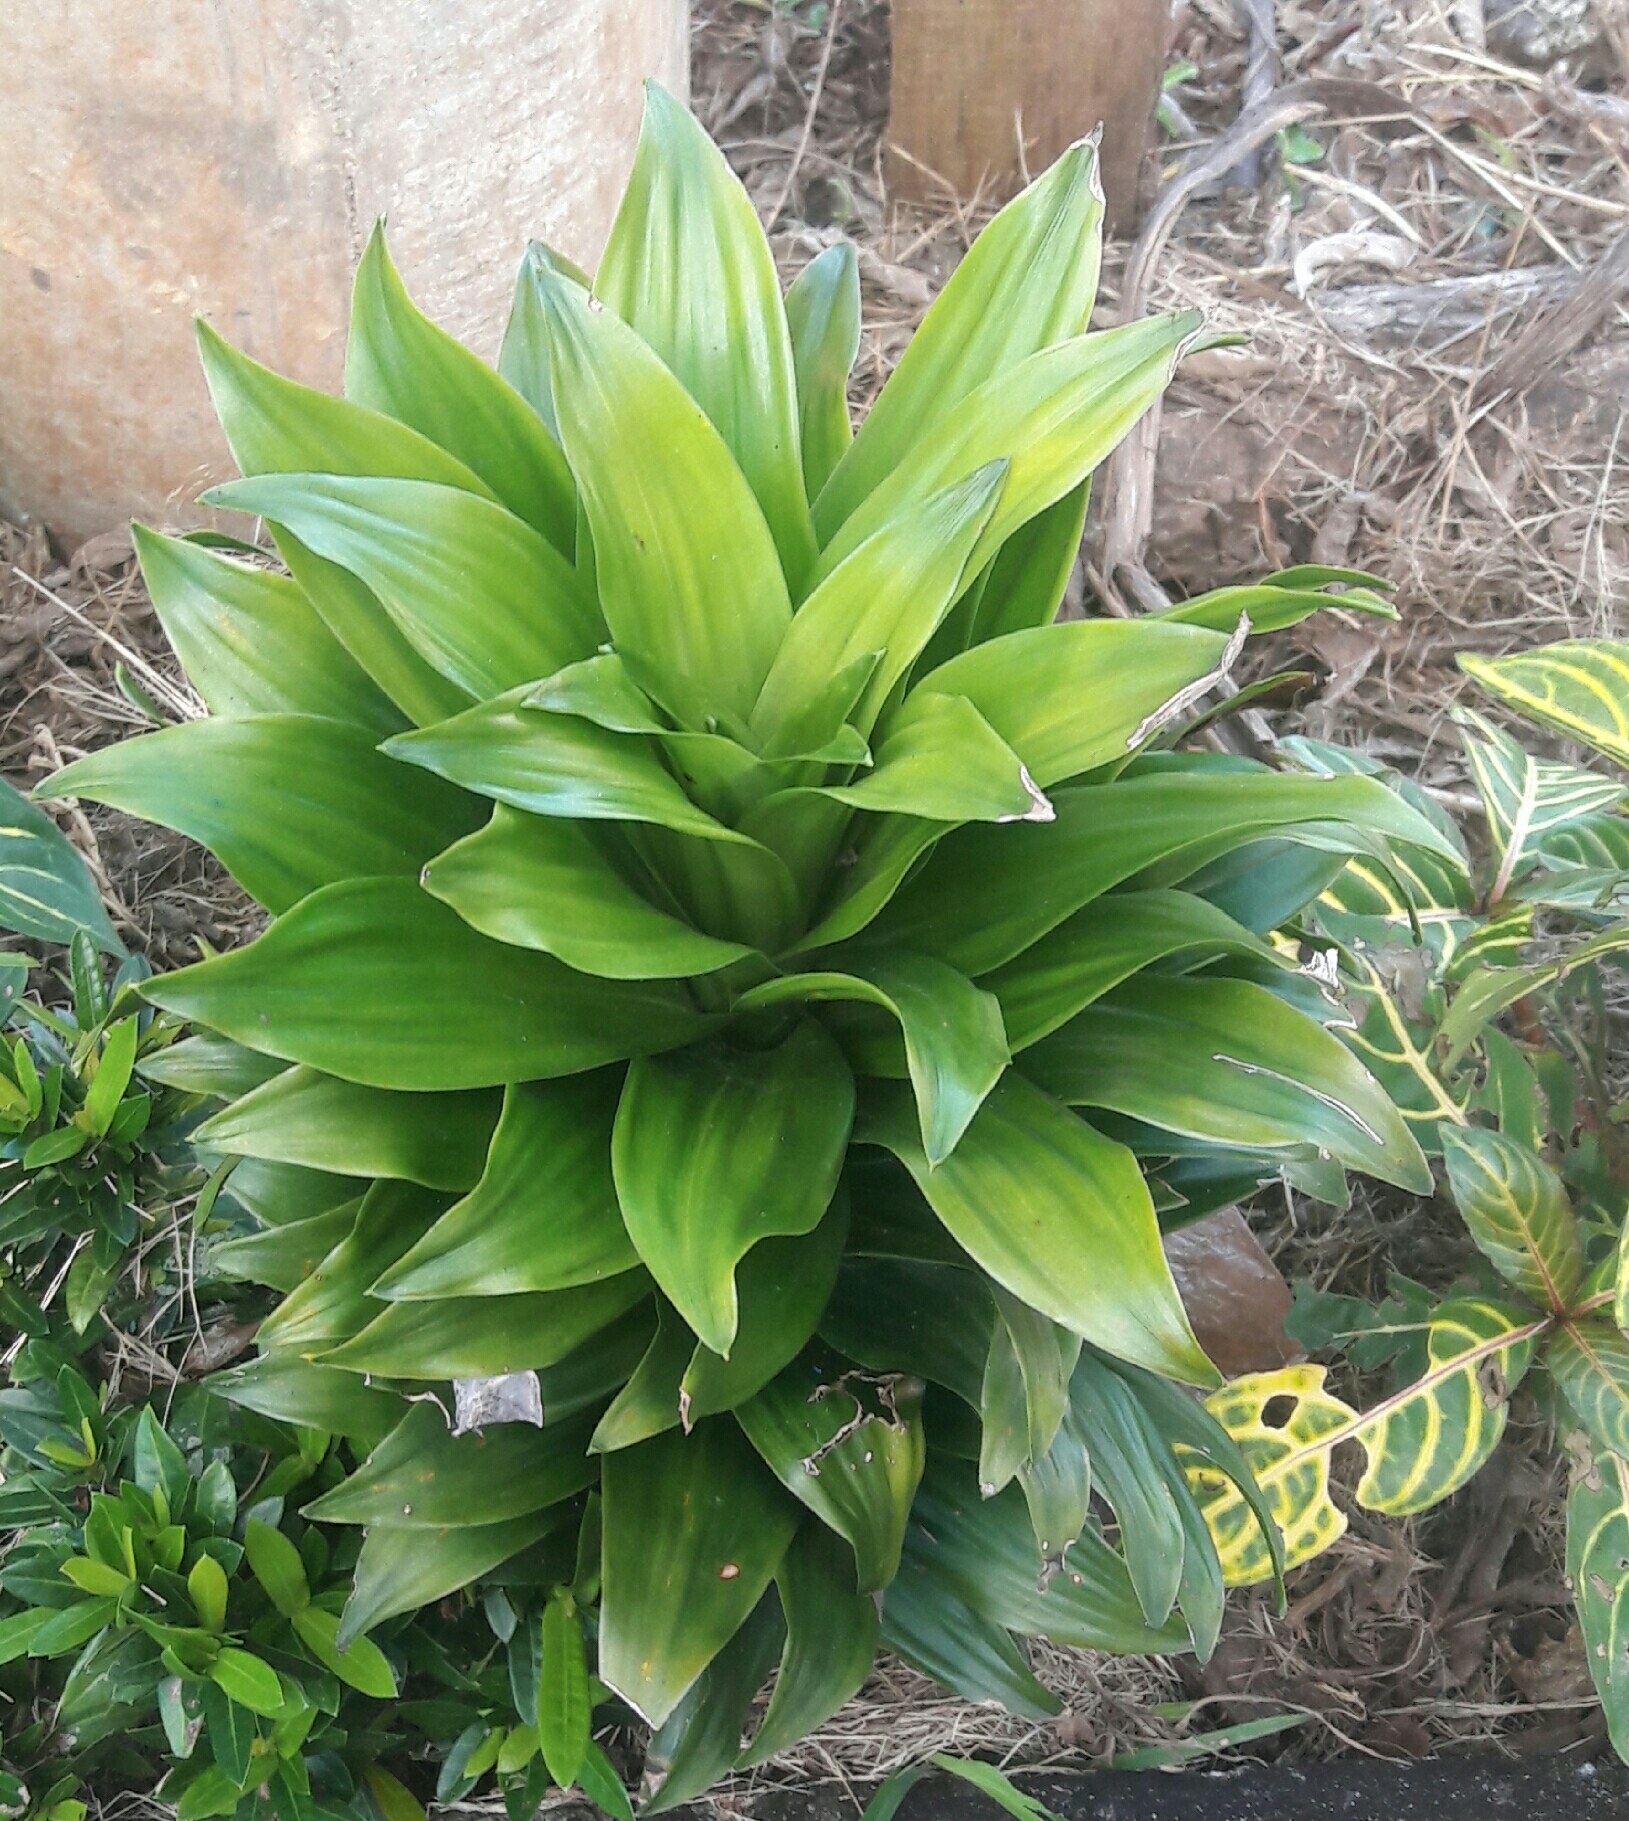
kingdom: Plantae
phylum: Tracheophyta
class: Liliopsida
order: Asparagales
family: Asparagaceae
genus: Dracaena
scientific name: Dracaena fragrans
